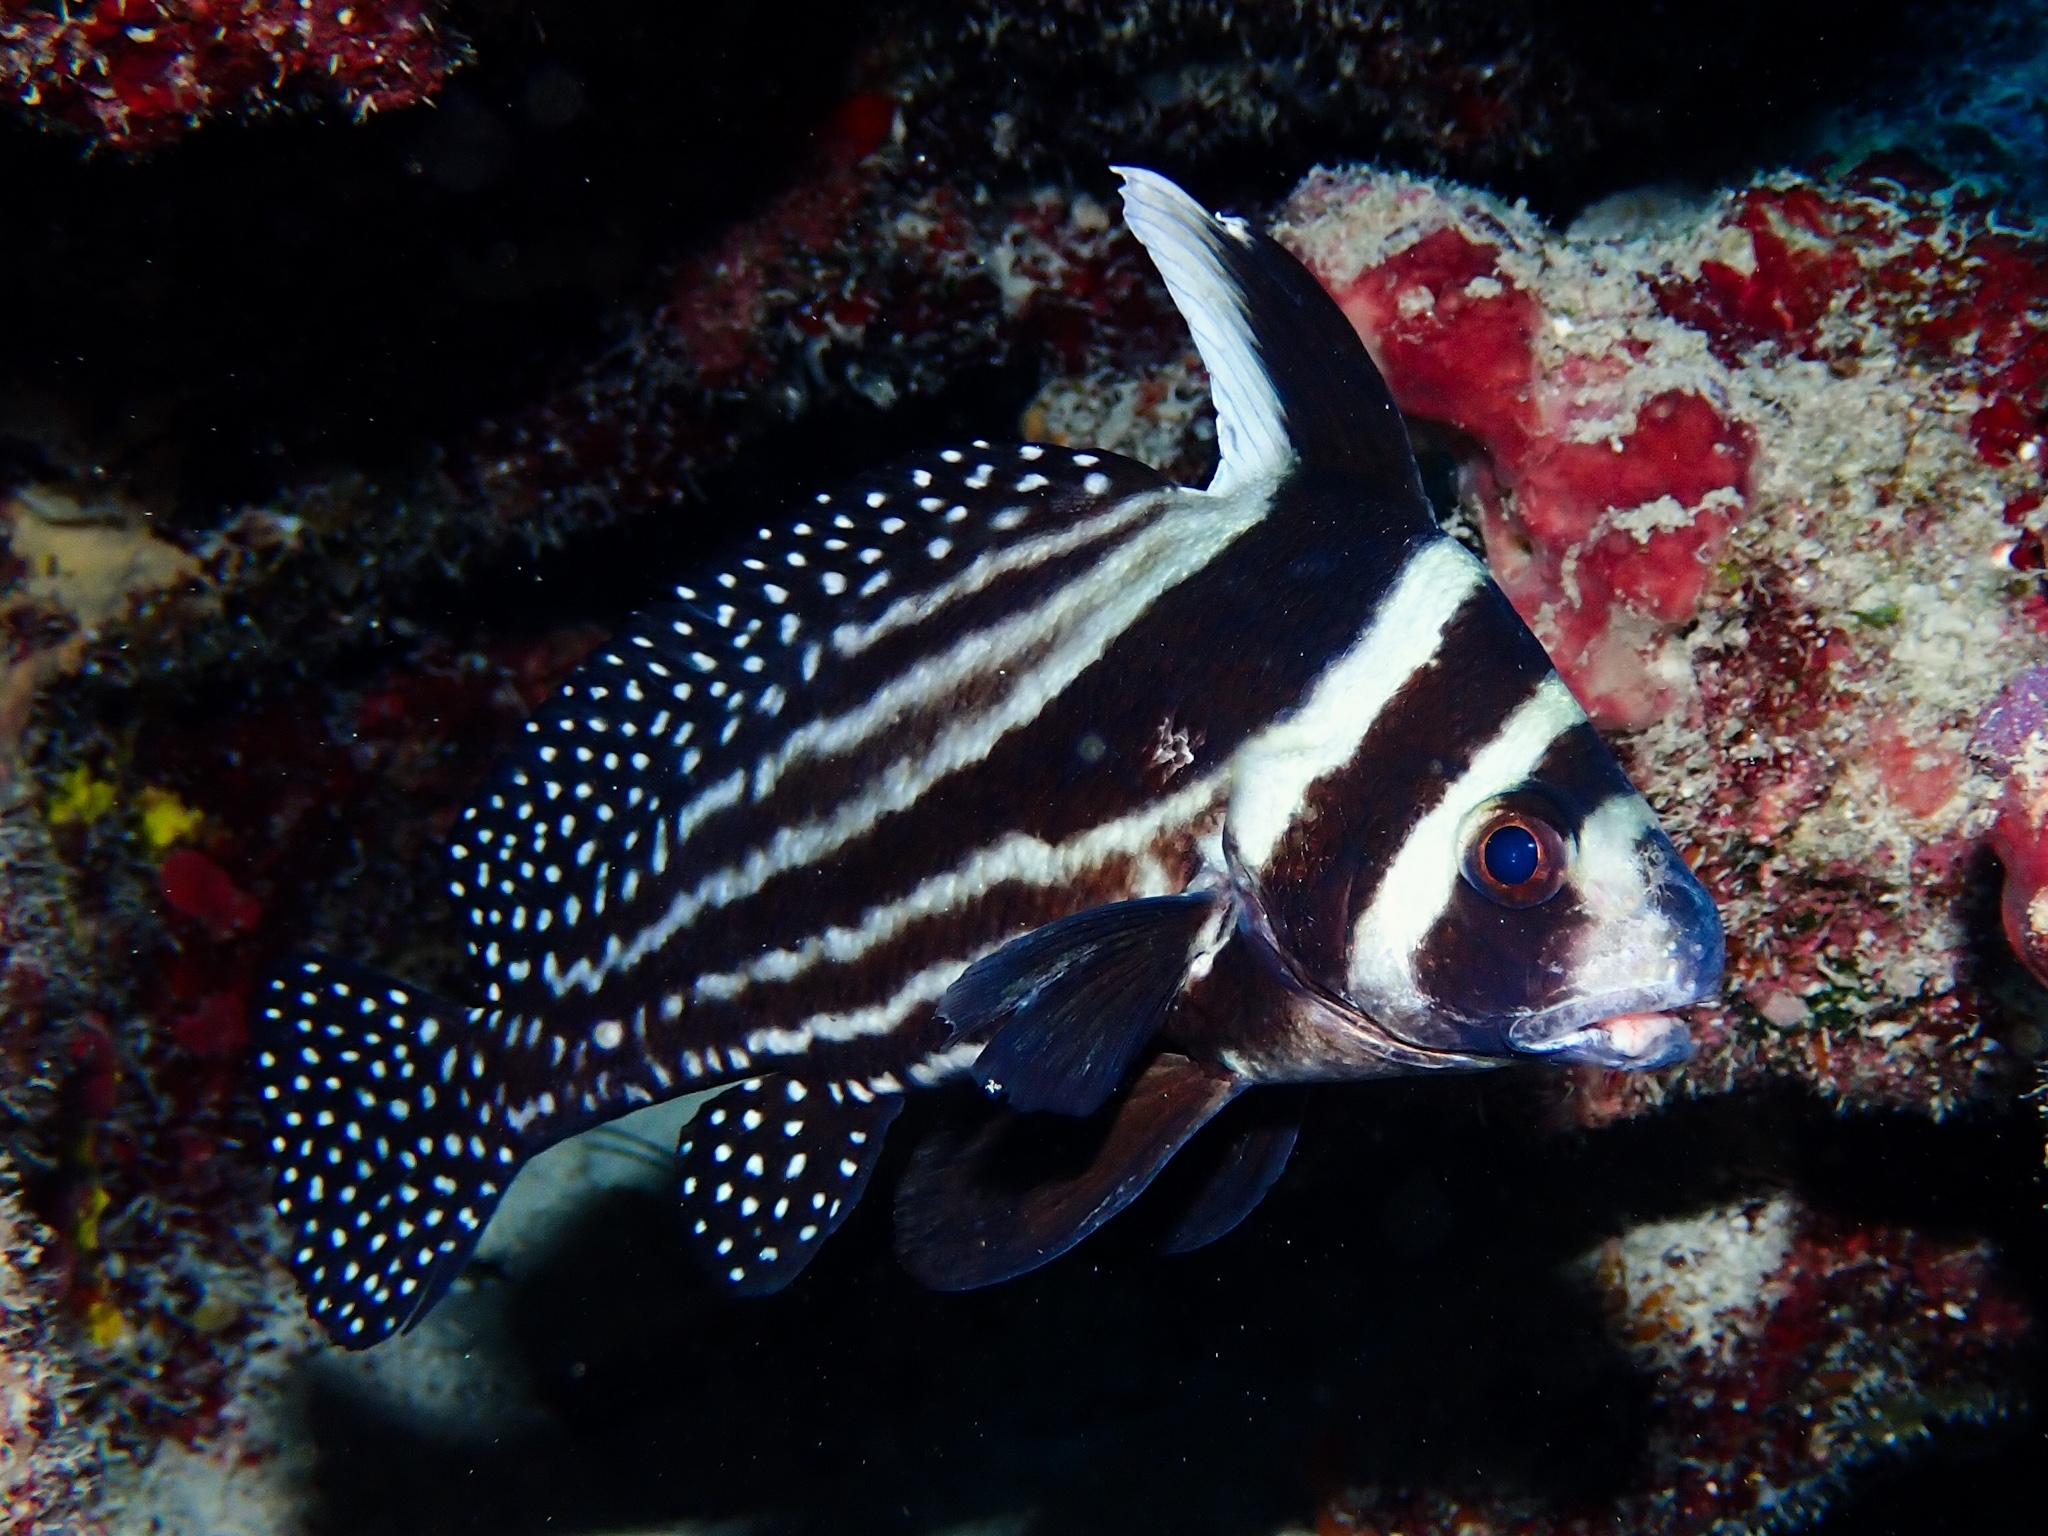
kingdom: Animalia
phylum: Chordata
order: Perciformes
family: Sciaenidae
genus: Equetus
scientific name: Equetus punctatus
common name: Spotted drum
